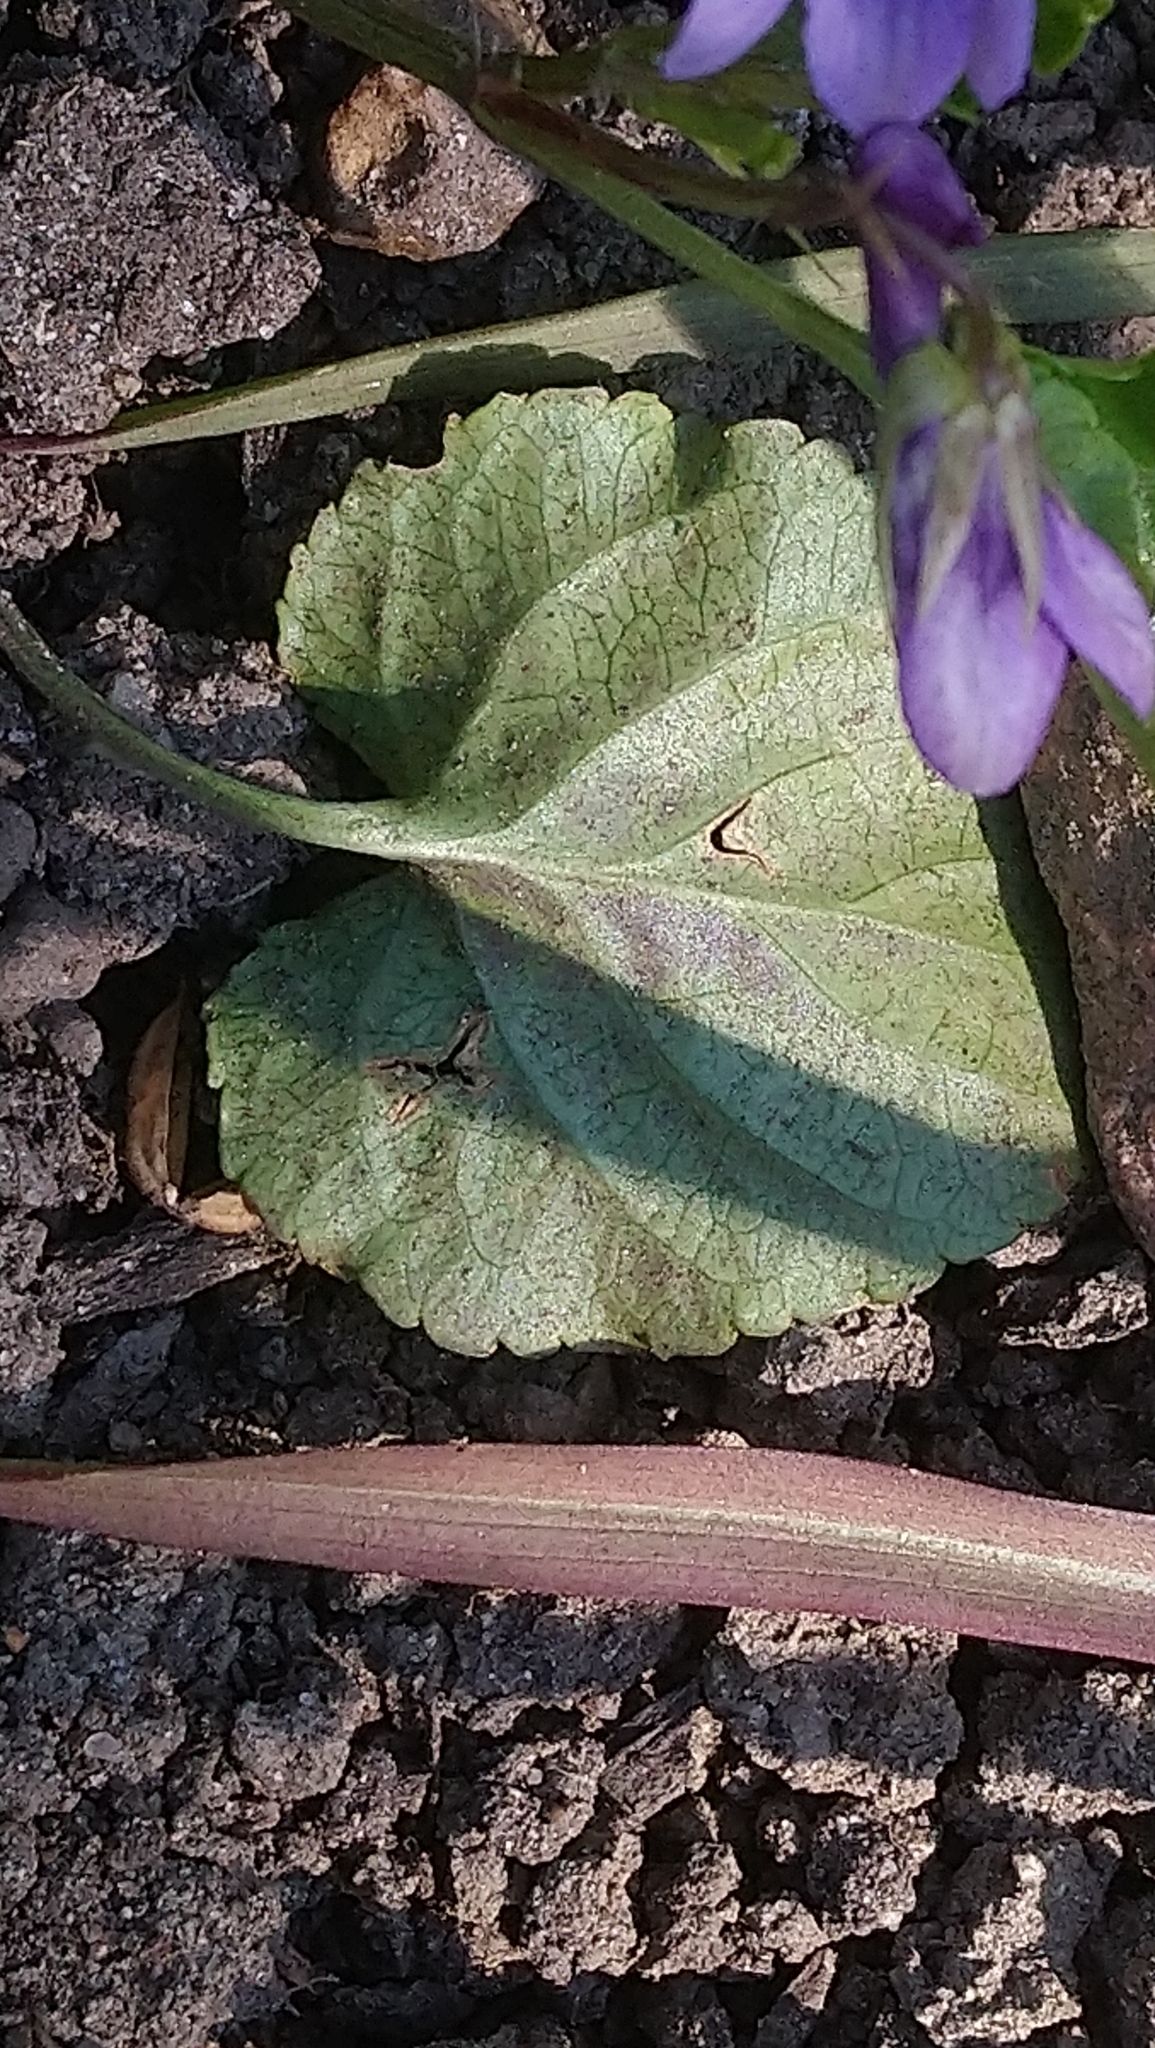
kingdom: Plantae
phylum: Tracheophyta
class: Magnoliopsida
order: Malpighiales
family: Violaceae
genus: Viola
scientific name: Viola reichenbachiana
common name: Early dog-violet
